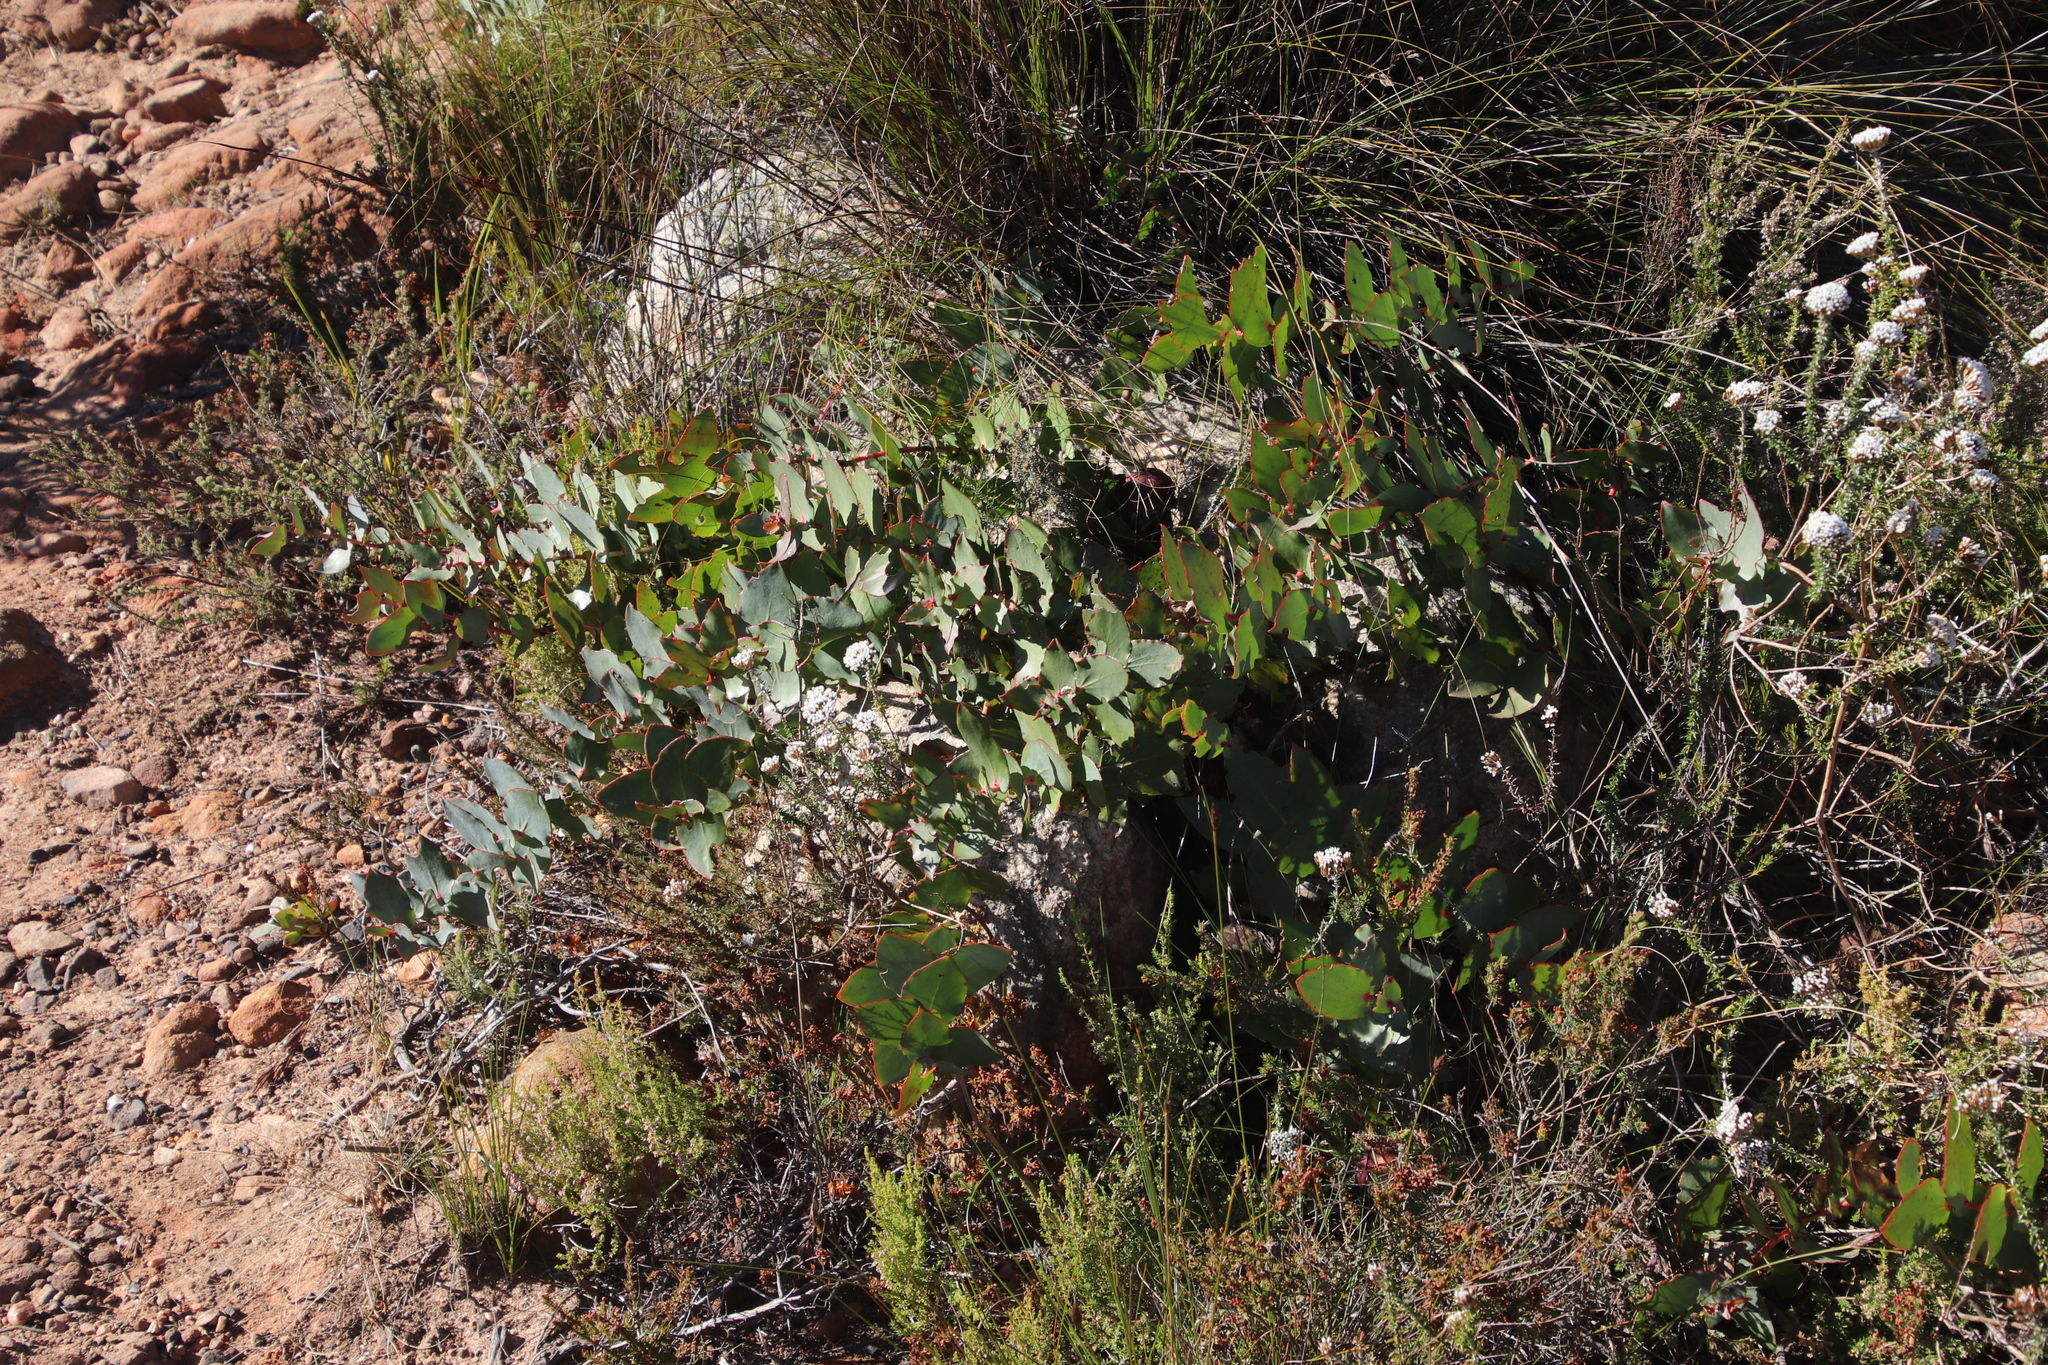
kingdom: Plantae
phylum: Tracheophyta
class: Magnoliopsida
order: Proteales
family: Proteaceae
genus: Protea
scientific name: Protea amplexicaulis
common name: Clasping-leaf sugarbush
